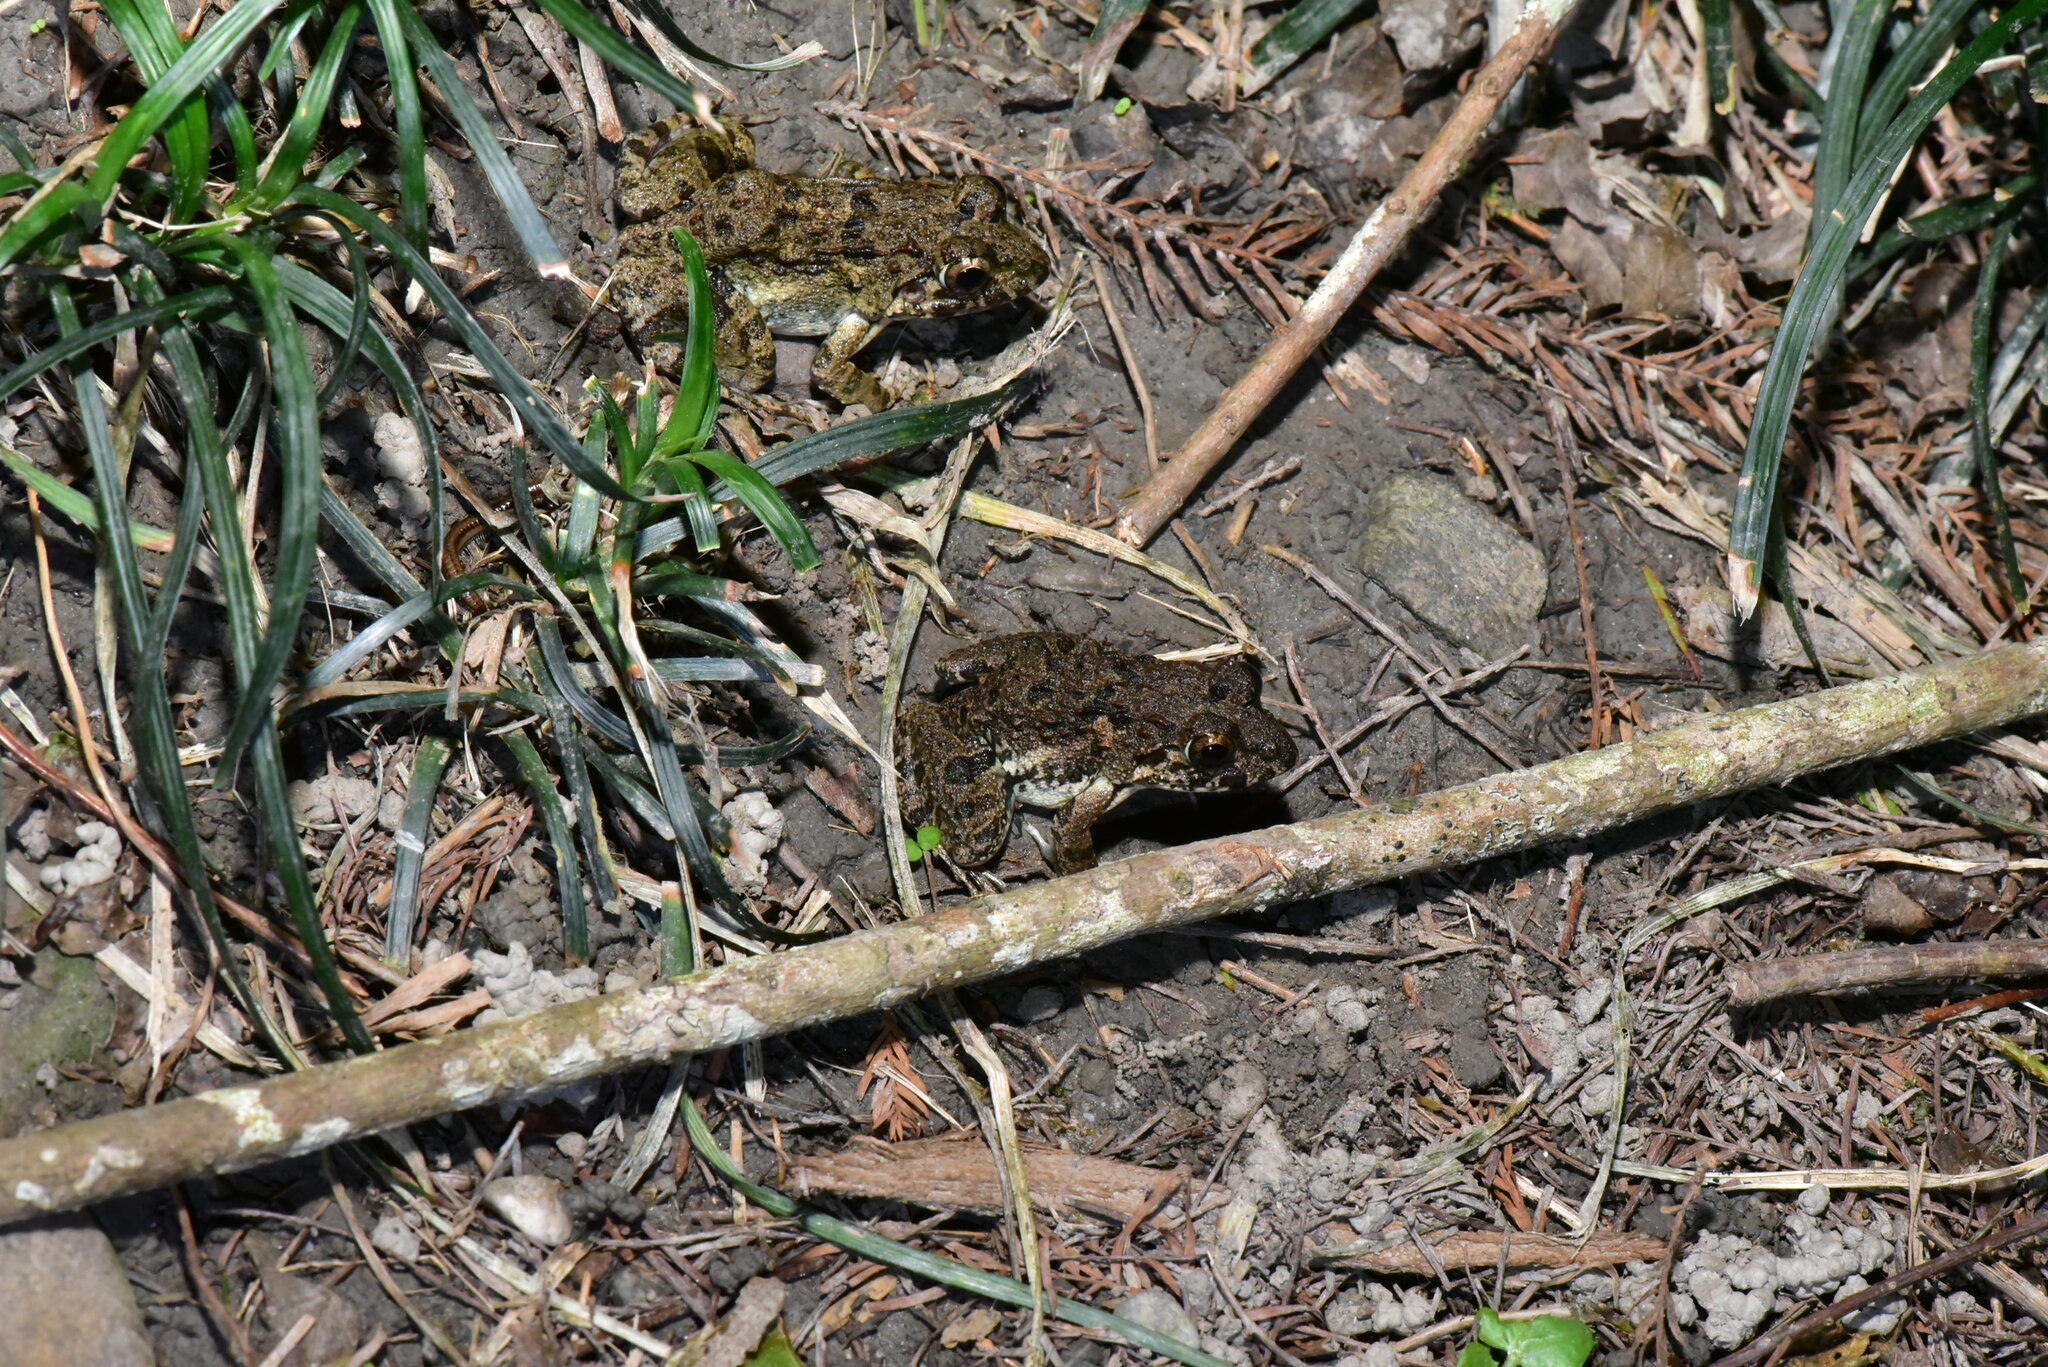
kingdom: Animalia
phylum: Chordata
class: Amphibia
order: Anura
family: Dicroglossidae
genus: Fejervarya
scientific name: Fejervarya limnocharis
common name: Asian grass frog/common pond frog/field frog/grass frog/indian rice frog
